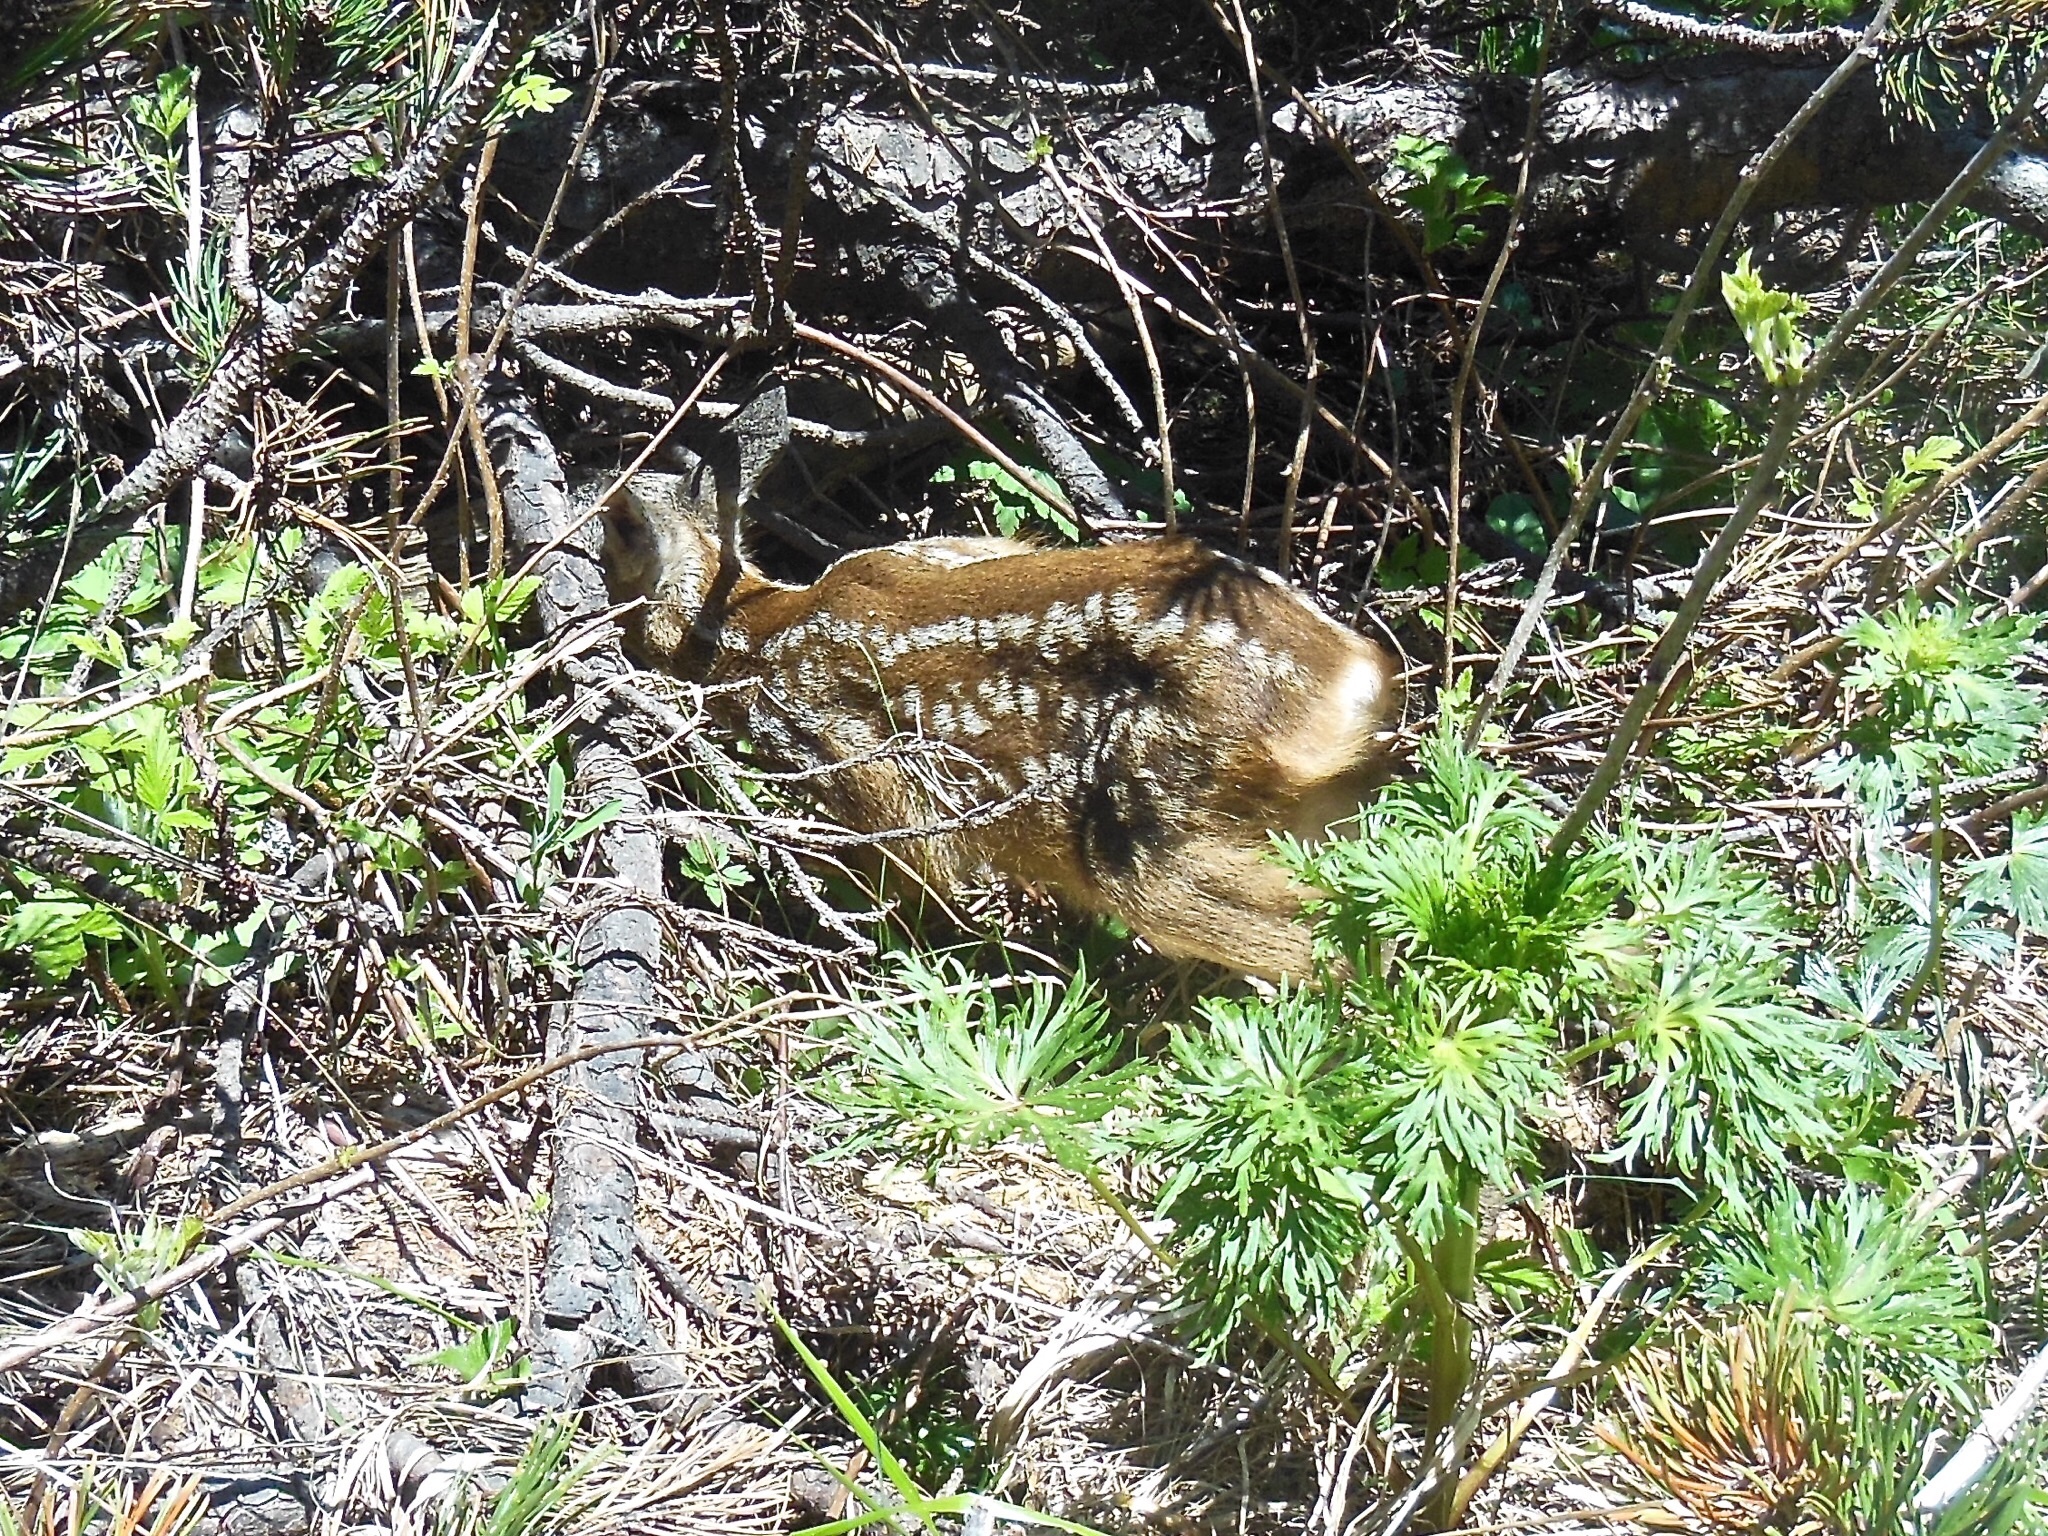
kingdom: Animalia
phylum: Chordata
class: Mammalia
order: Artiodactyla
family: Cervidae
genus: Capreolus
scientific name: Capreolus capreolus
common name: Western roe deer
